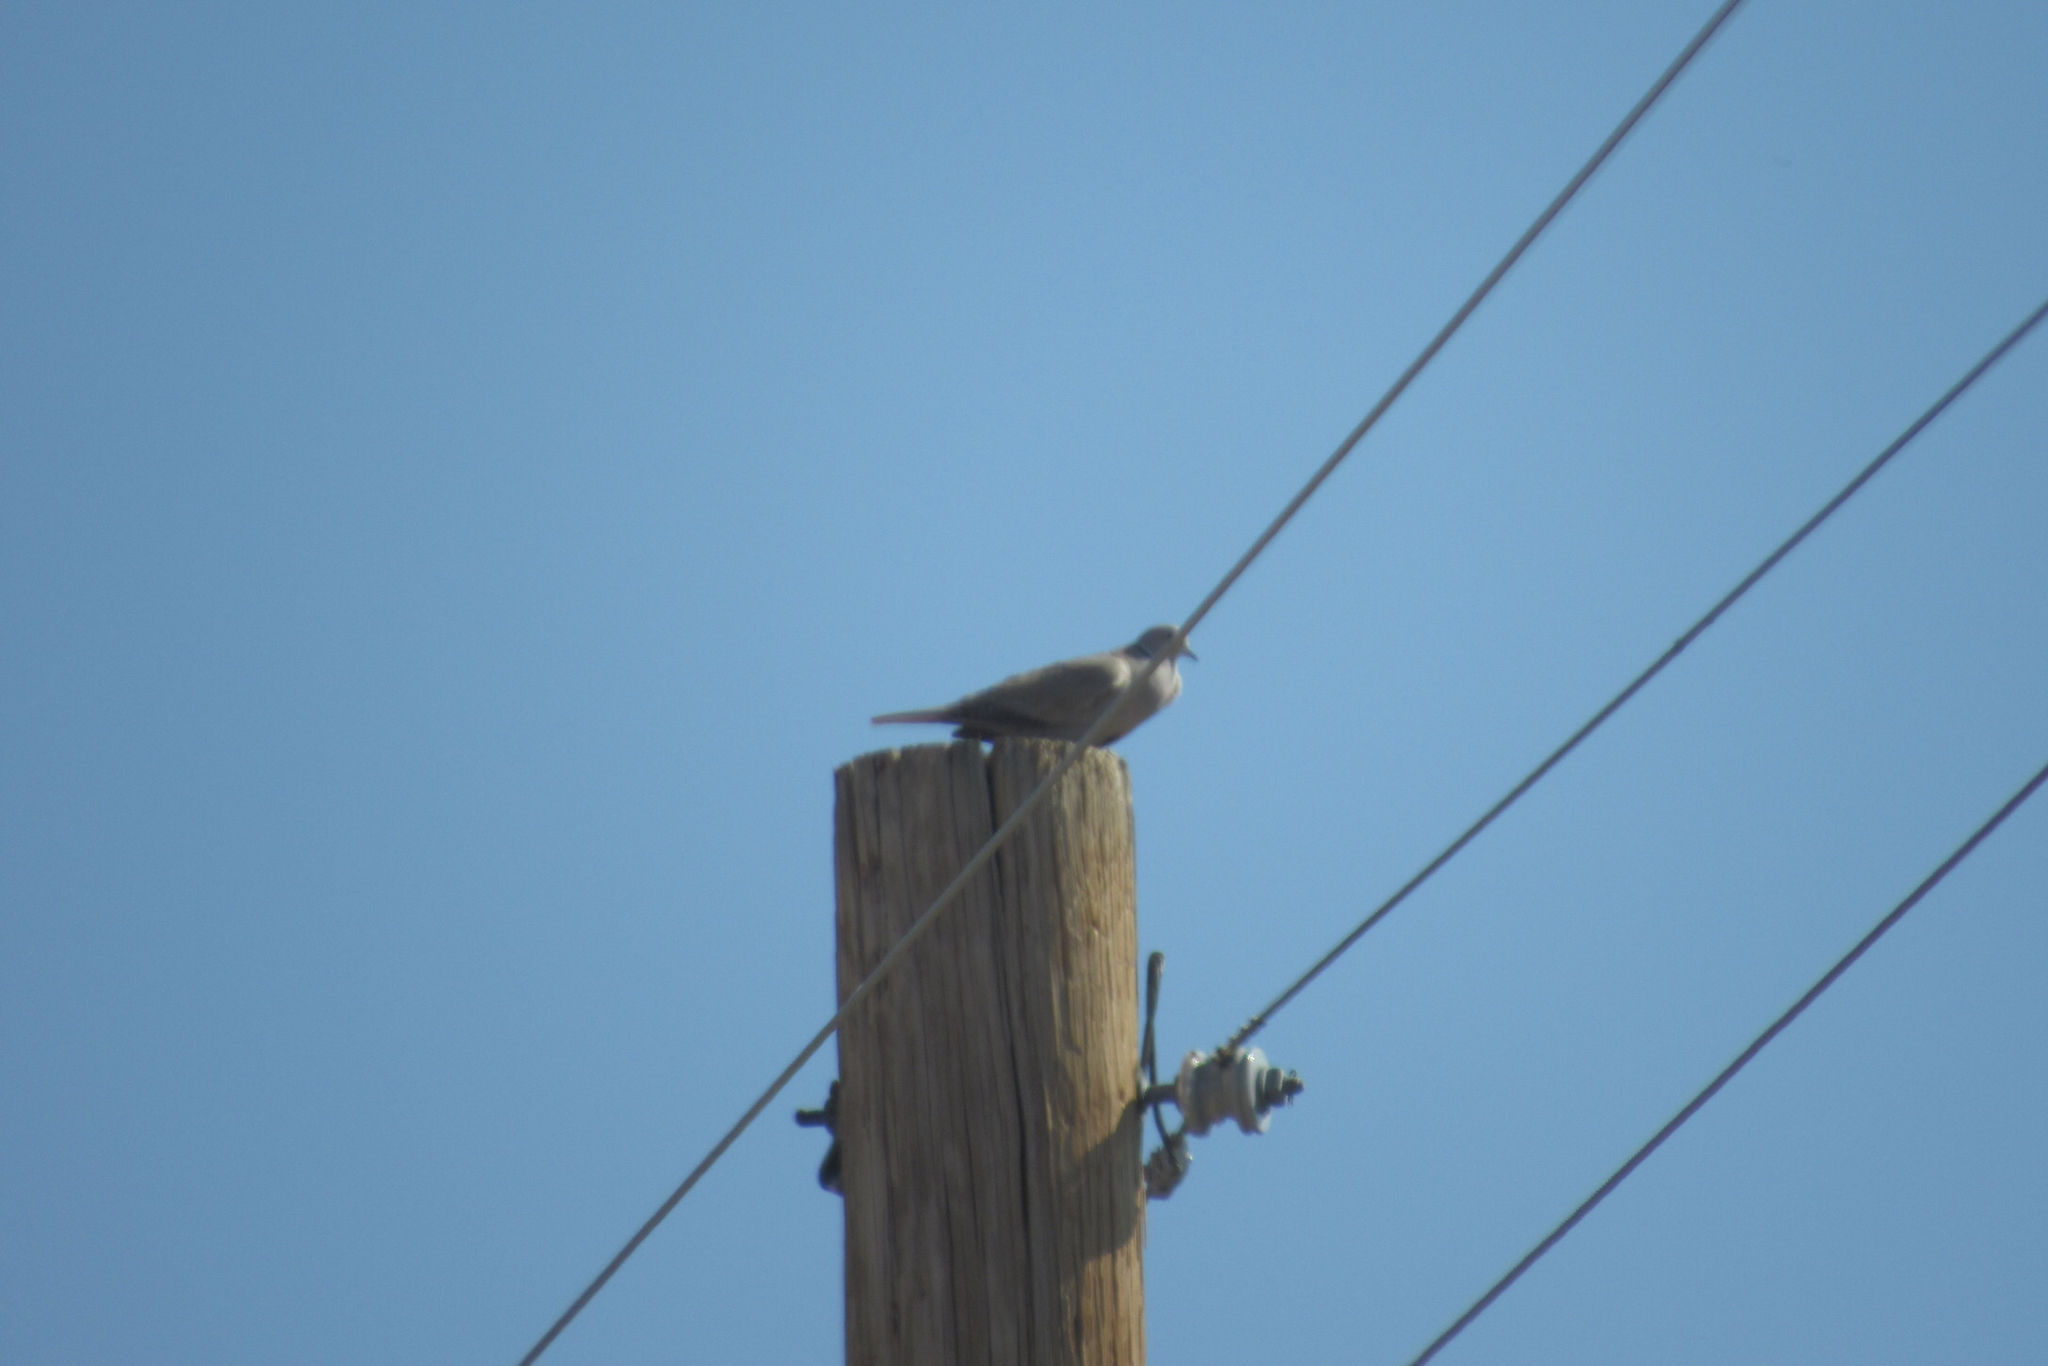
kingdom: Animalia
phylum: Chordata
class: Aves
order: Columbiformes
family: Columbidae
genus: Streptopelia
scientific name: Streptopelia decaocto
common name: Eurasian collared dove
